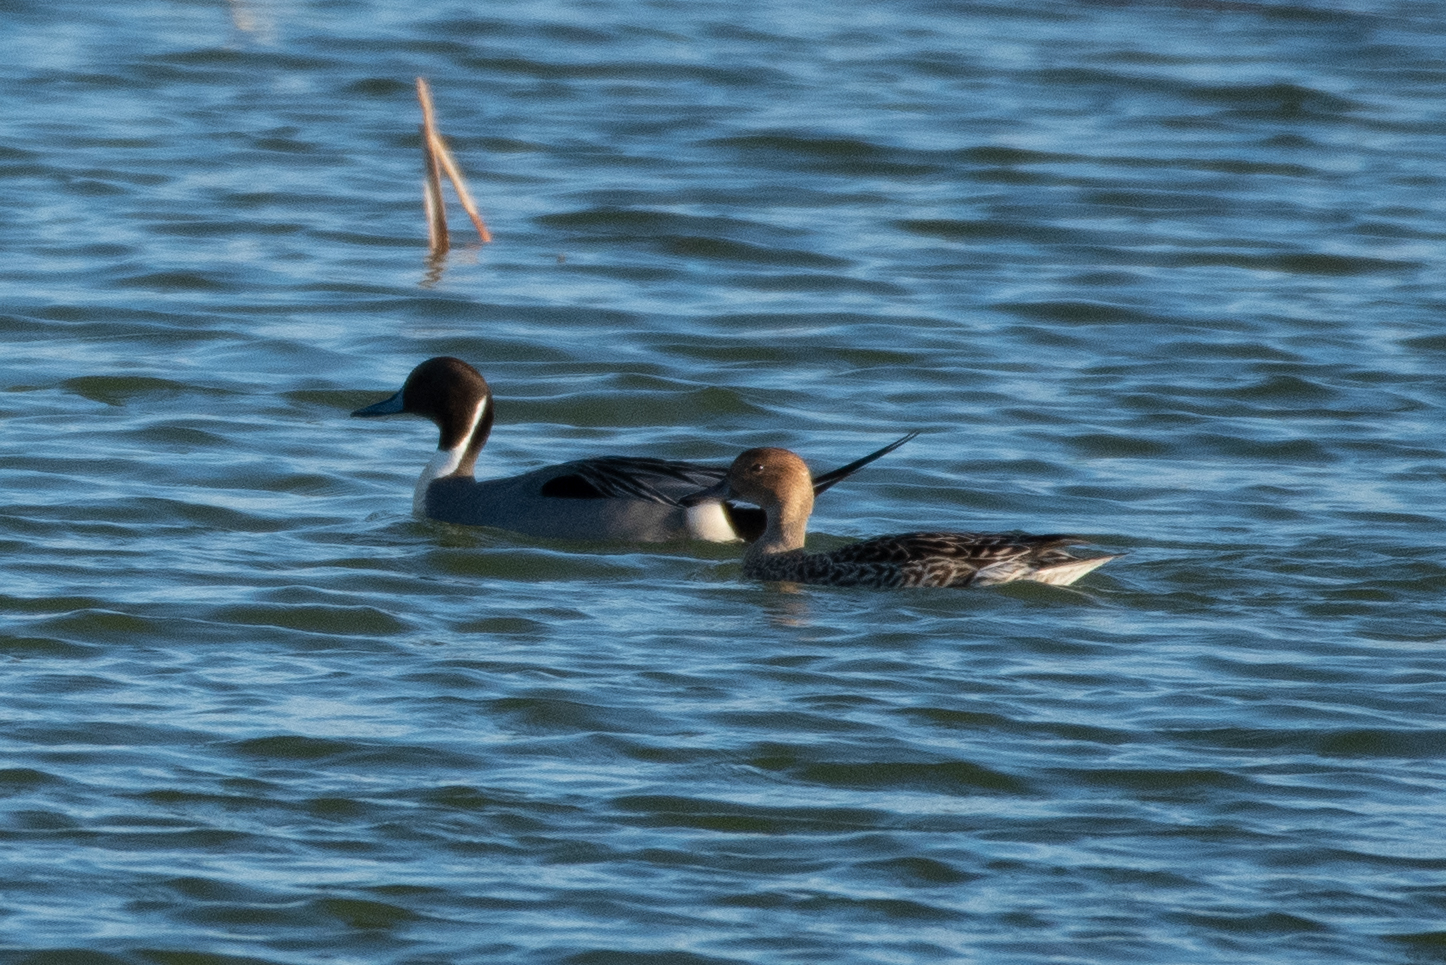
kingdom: Animalia
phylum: Chordata
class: Aves
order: Anseriformes
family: Anatidae
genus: Anas
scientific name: Anas acuta
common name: Northern pintail
